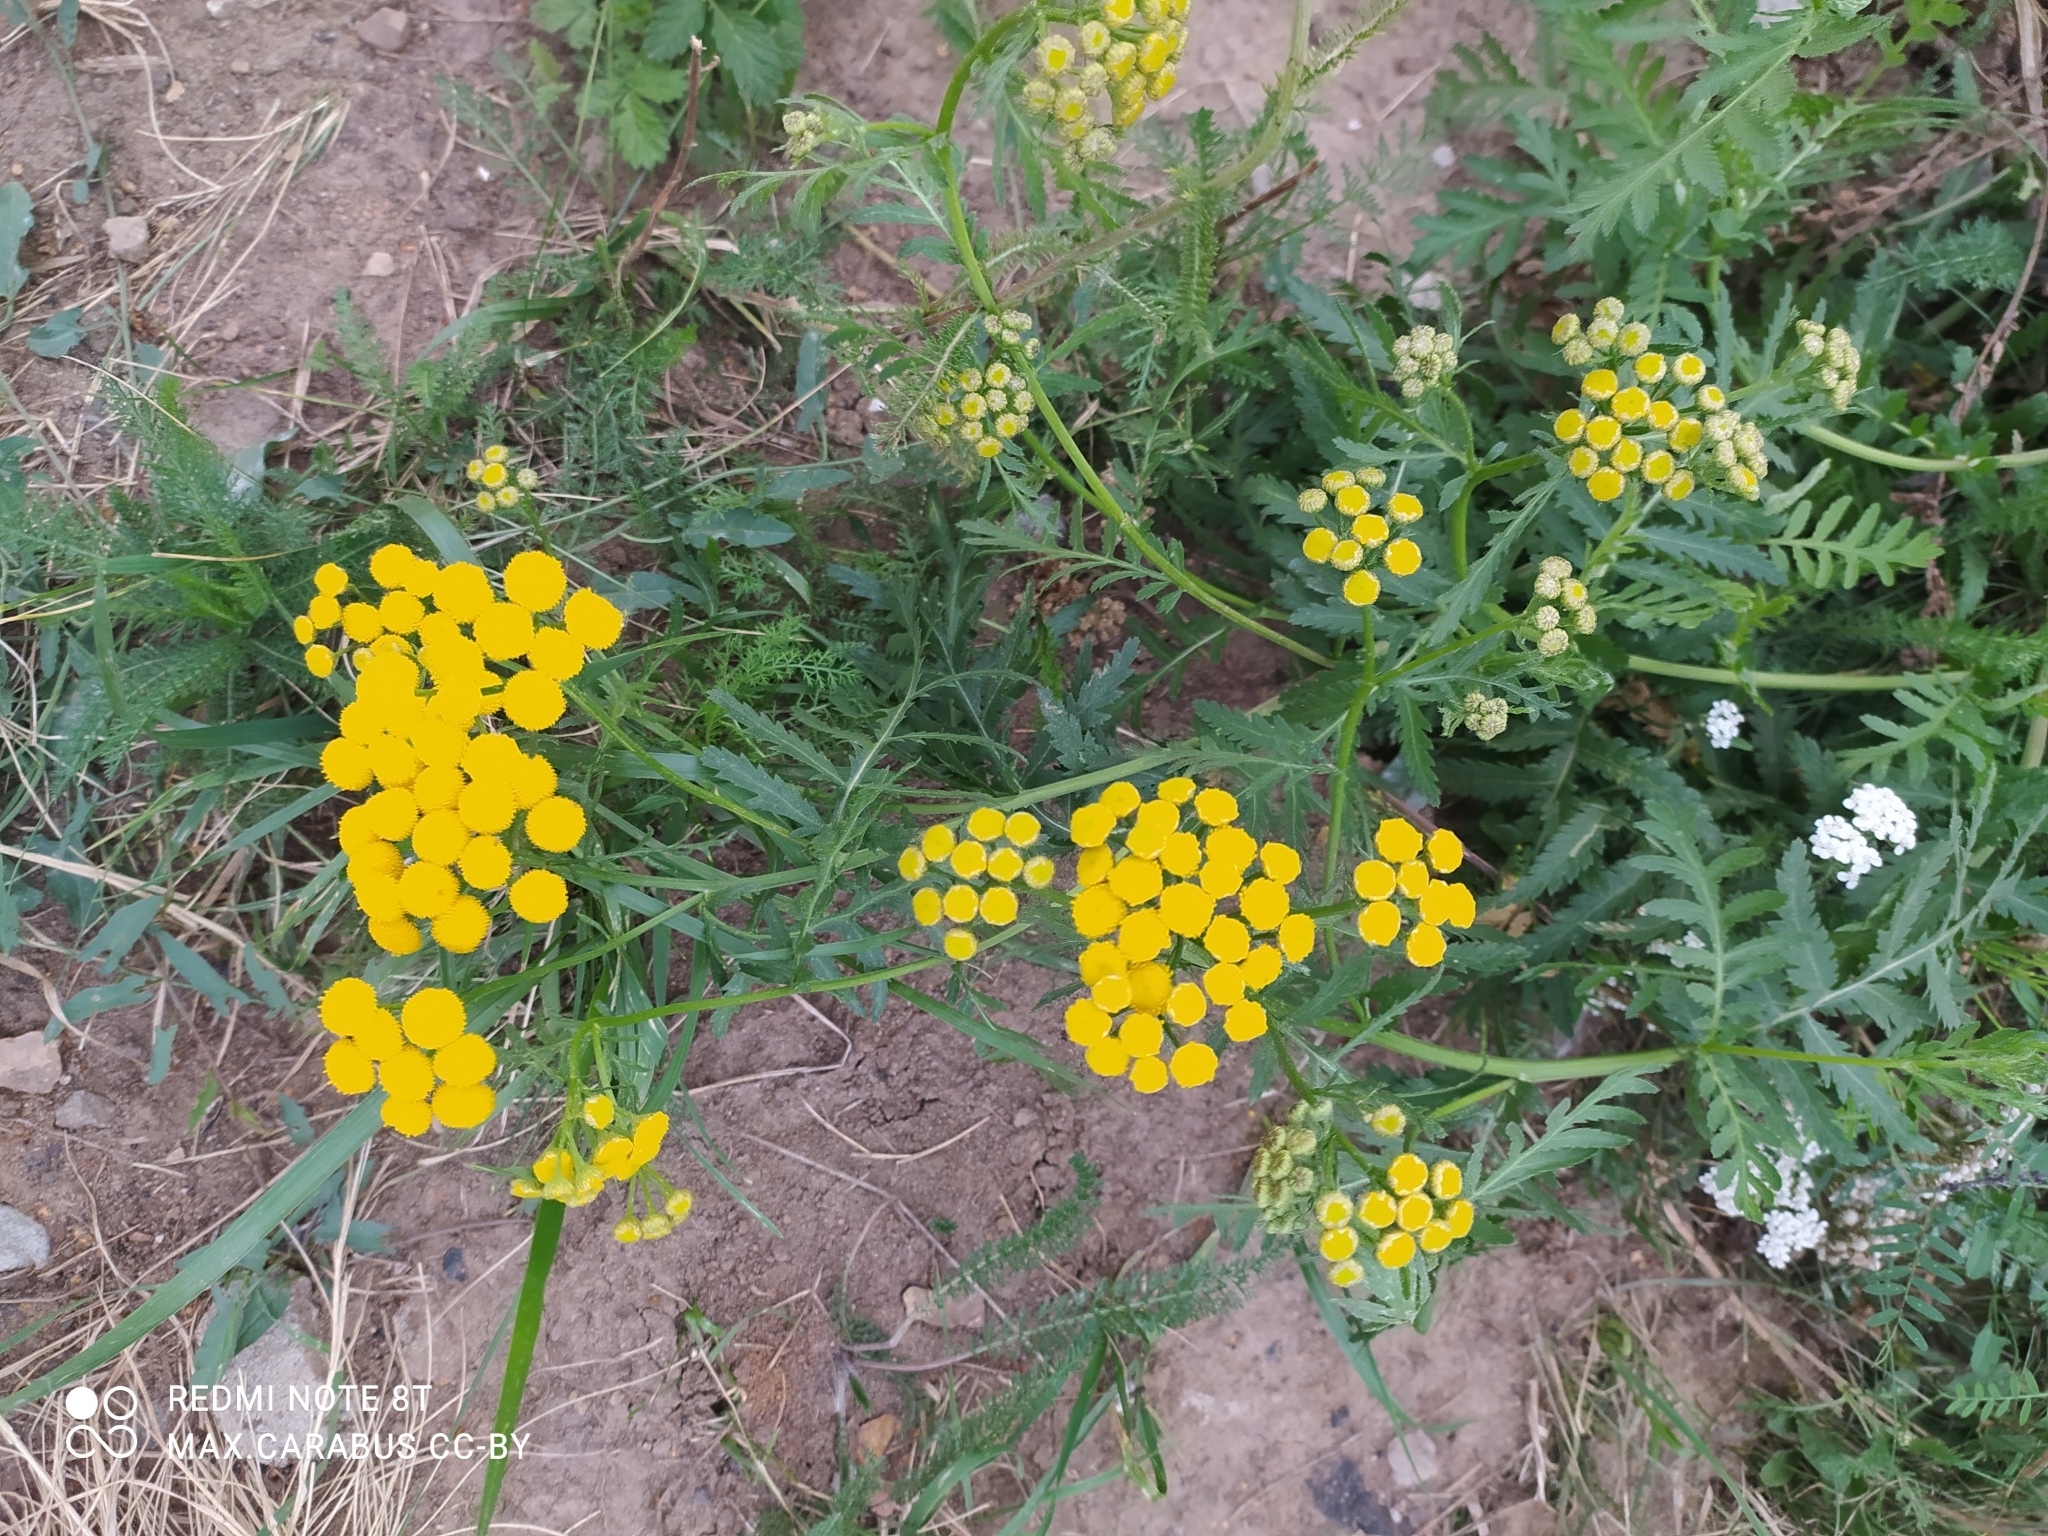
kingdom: Plantae
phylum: Tracheophyta
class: Magnoliopsida
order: Asterales
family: Asteraceae
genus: Tanacetum
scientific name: Tanacetum vulgare
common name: Common tansy
